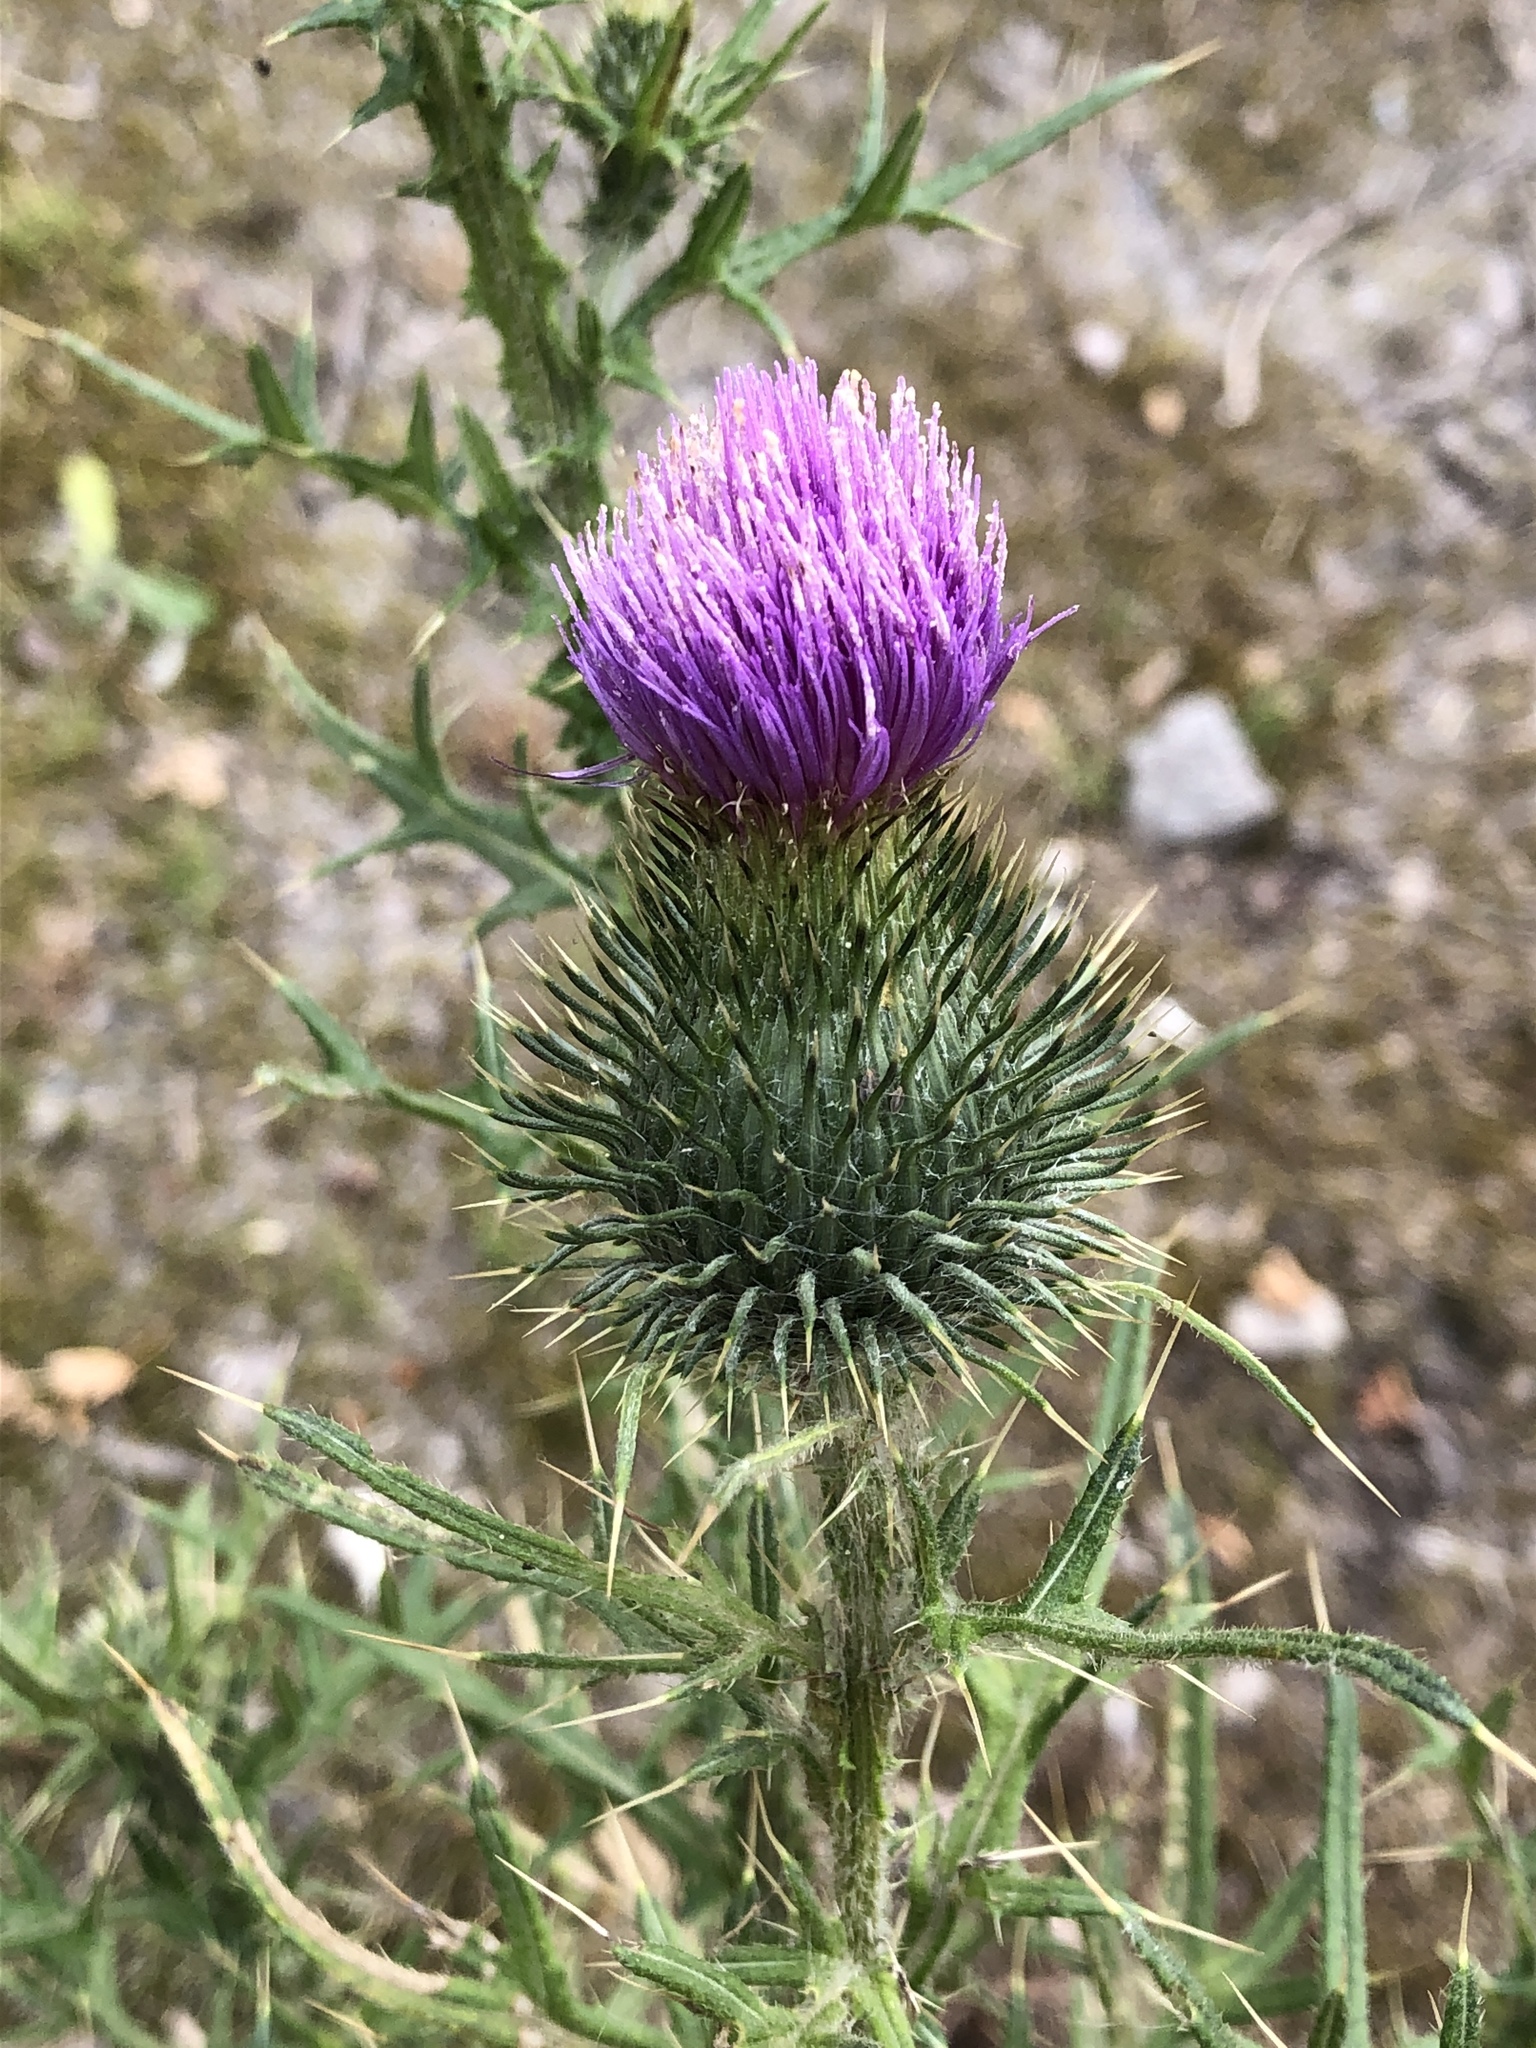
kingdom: Plantae
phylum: Tracheophyta
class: Magnoliopsida
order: Asterales
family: Asteraceae
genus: Cirsium
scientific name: Cirsium vulgare
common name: Bull thistle
